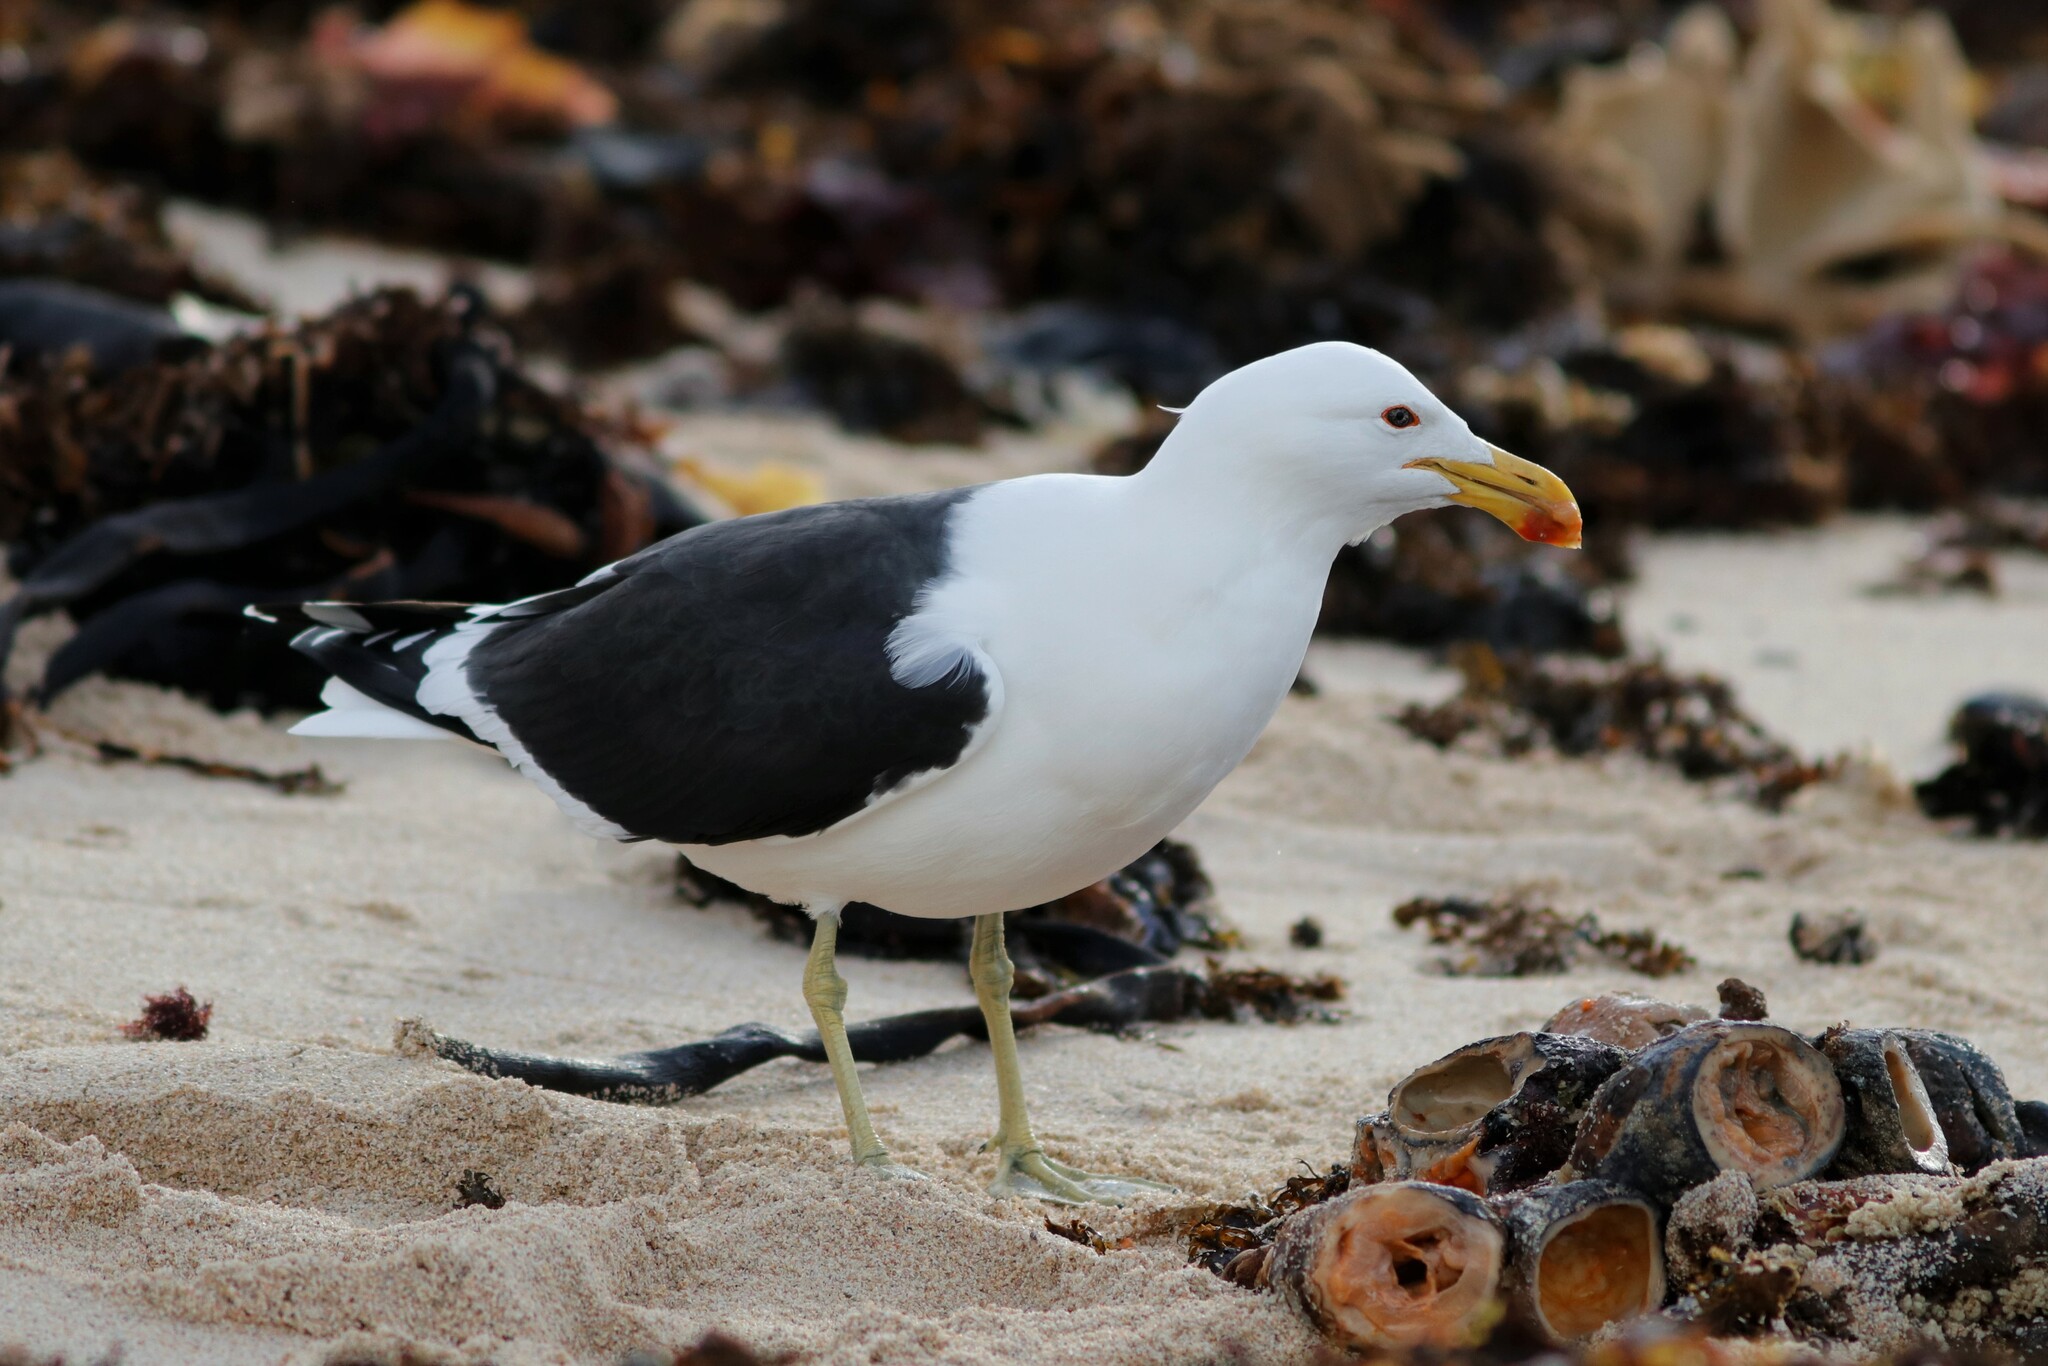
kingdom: Animalia
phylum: Chordata
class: Aves
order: Charadriiformes
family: Laridae
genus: Larus
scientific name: Larus dominicanus
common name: Kelp gull
